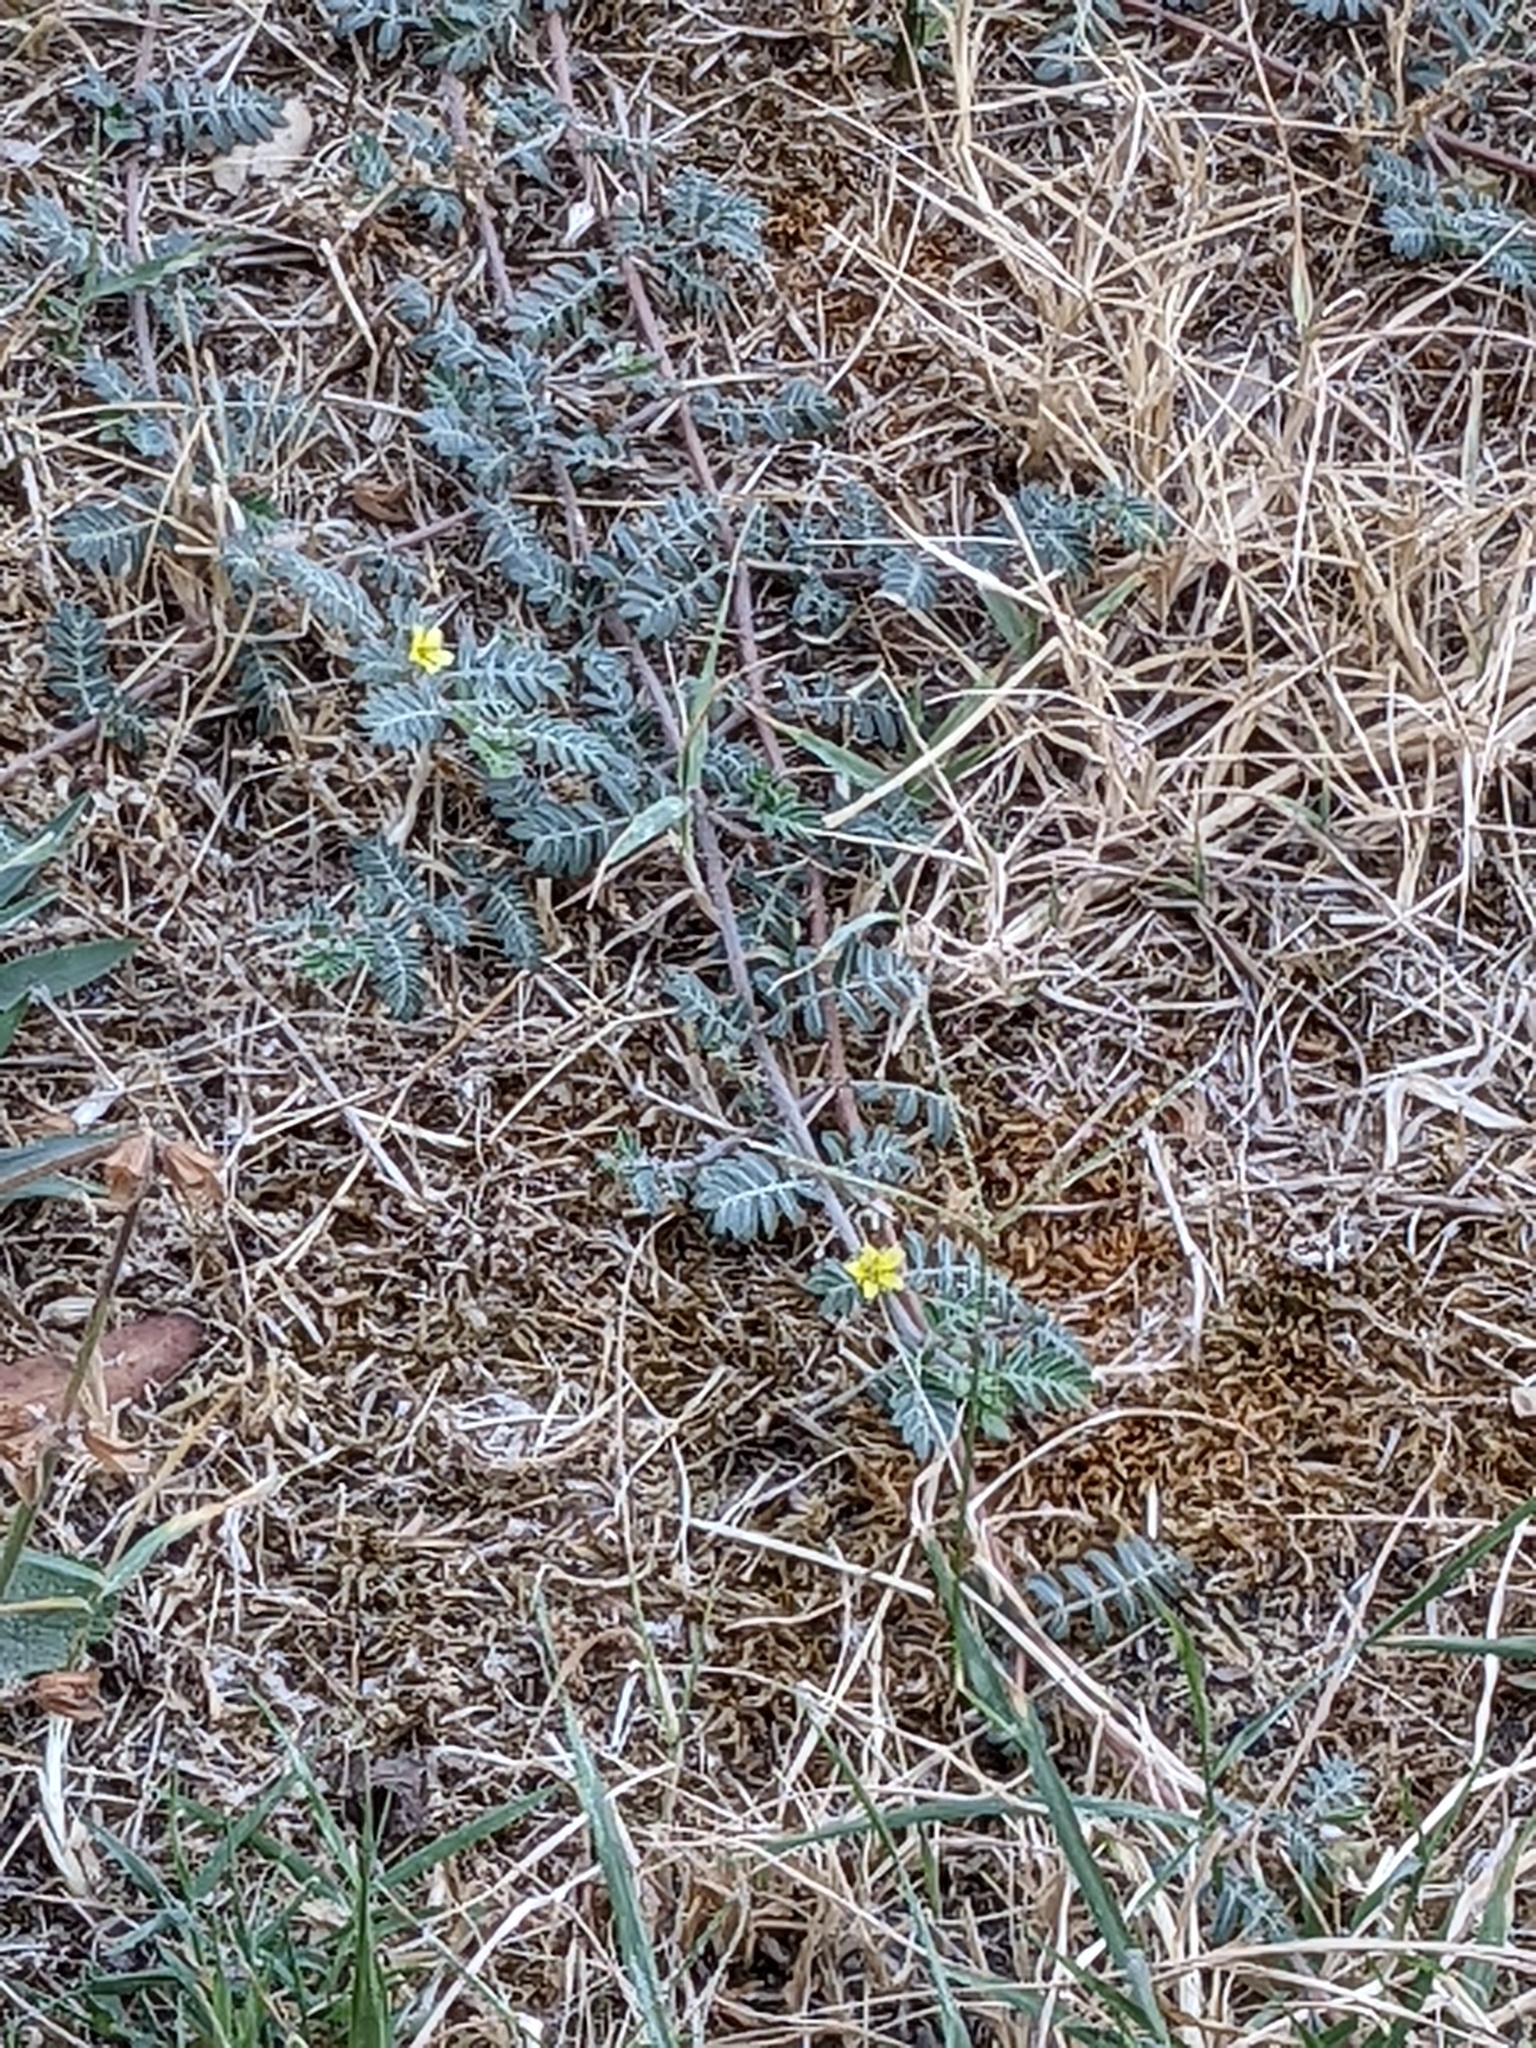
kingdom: Plantae
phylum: Tracheophyta
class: Magnoliopsida
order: Zygophyllales
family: Zygophyllaceae
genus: Tribulus
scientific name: Tribulus terrestris
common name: Puncturevine
